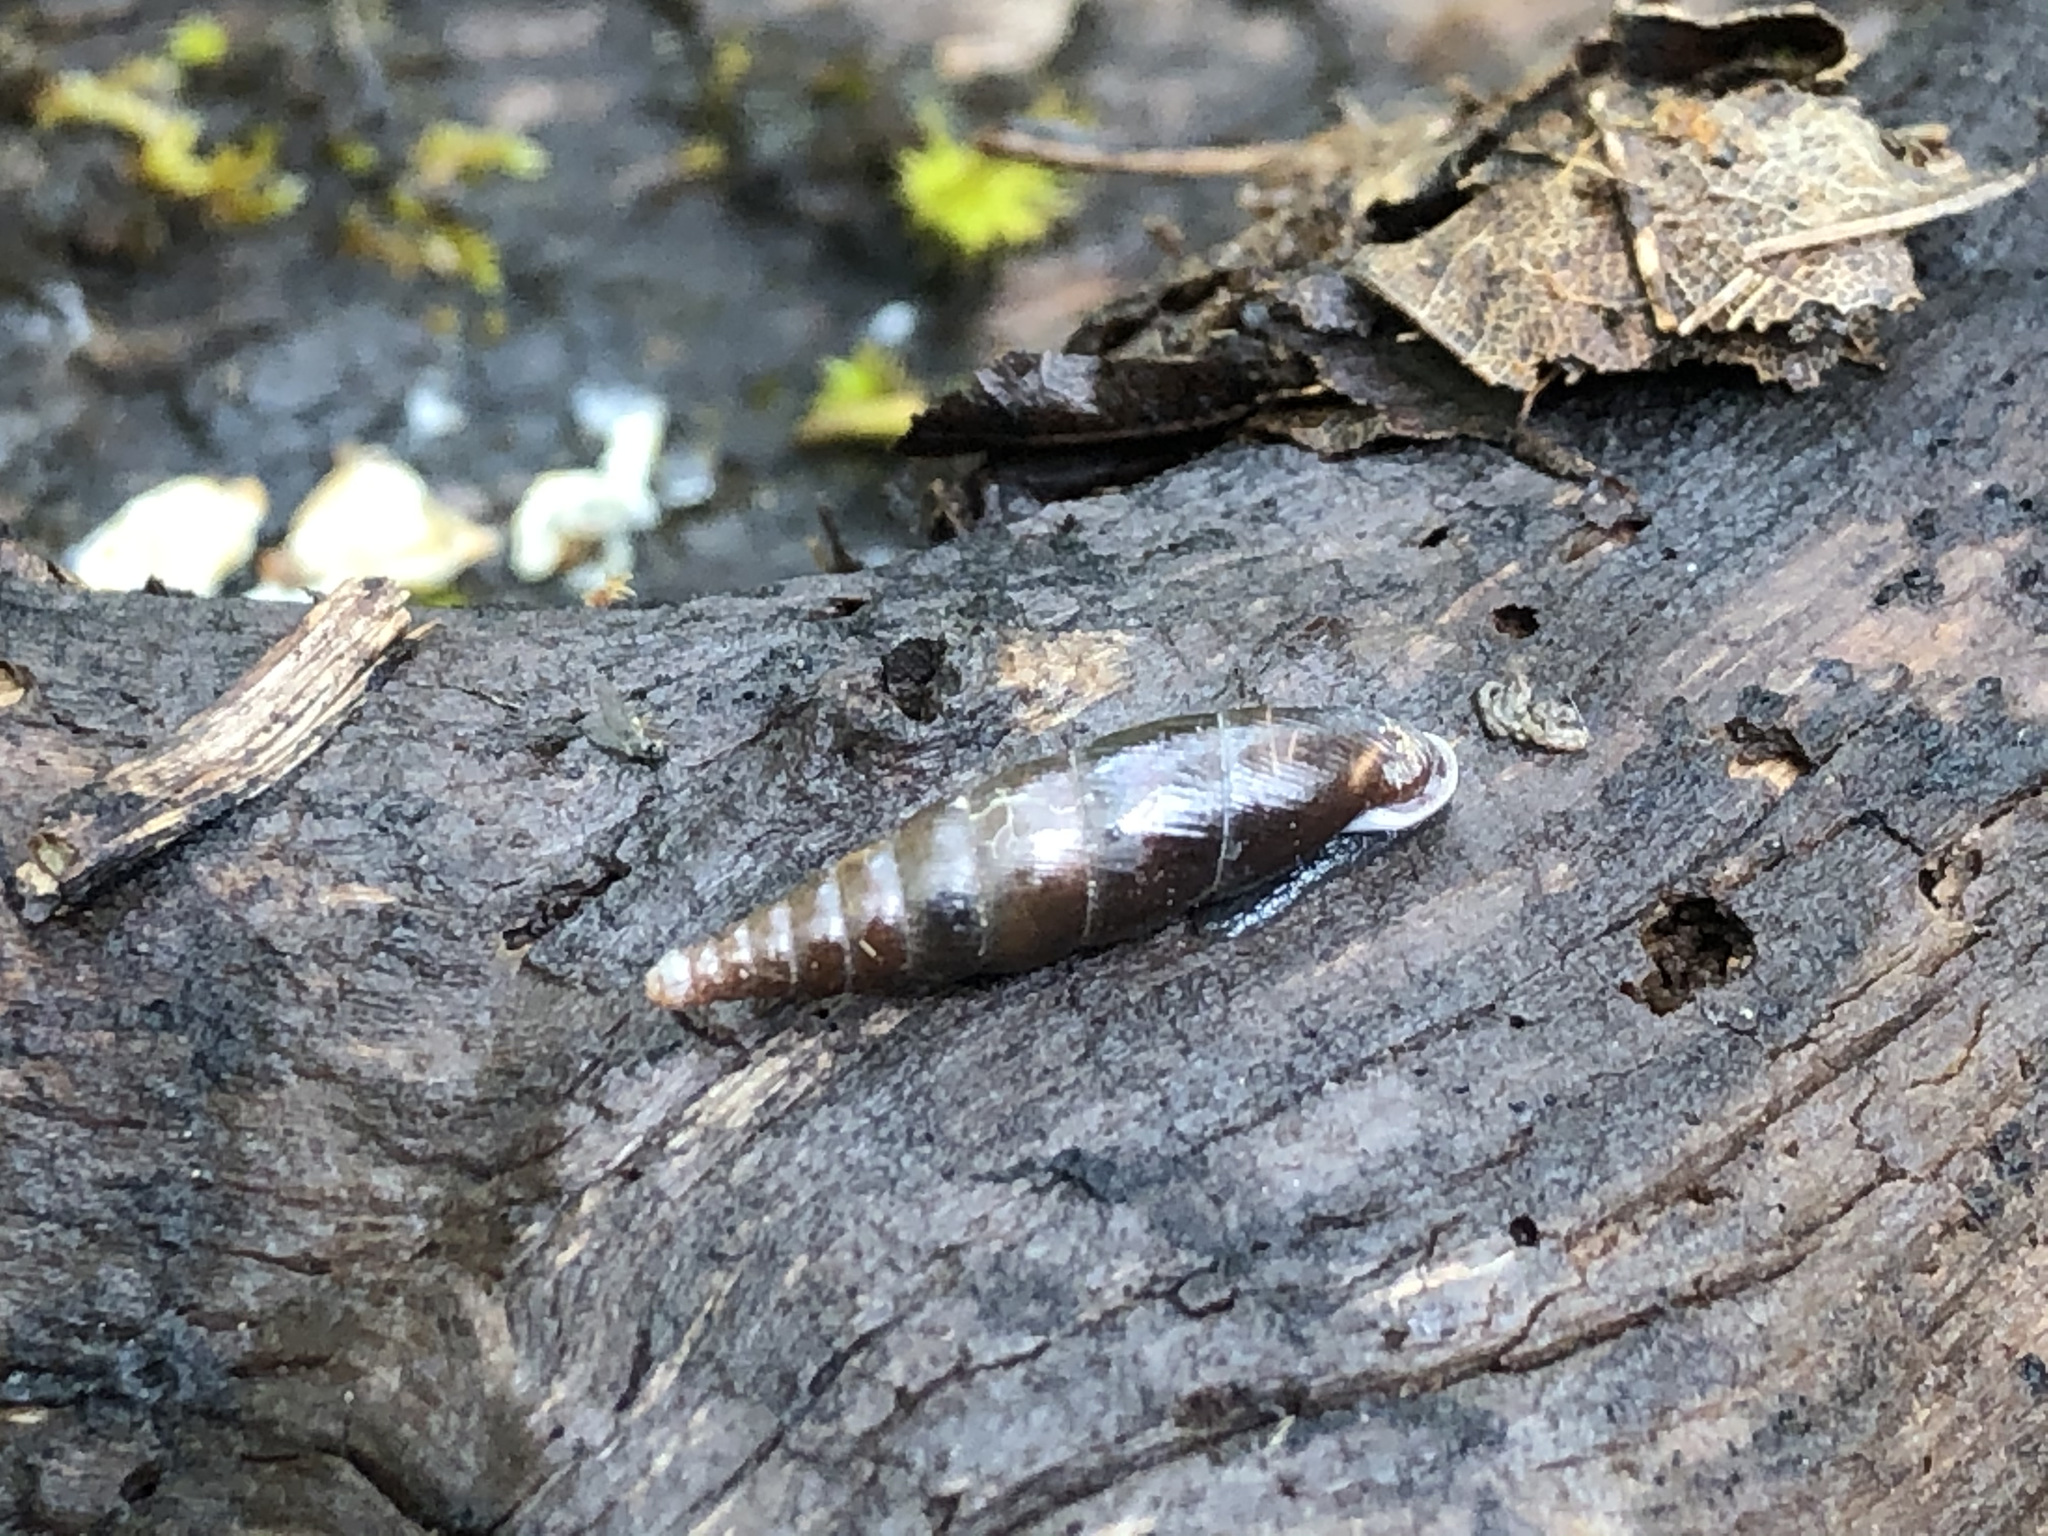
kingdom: Animalia
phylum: Mollusca
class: Gastropoda
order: Stylommatophora
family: Clausiliidae
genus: Cochlodina
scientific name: Cochlodina laminata
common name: Plaited door snail
